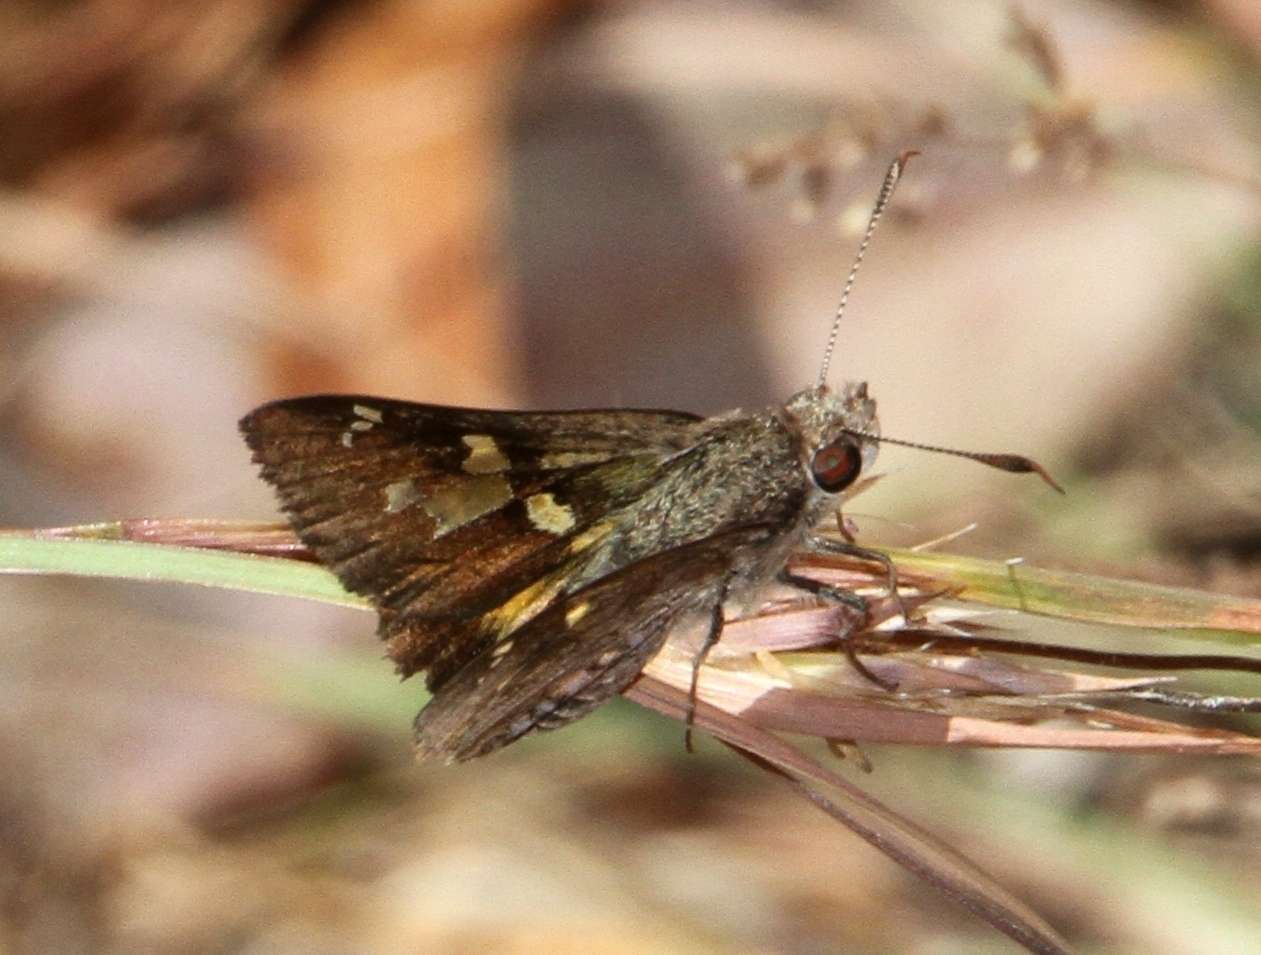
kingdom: Animalia
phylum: Arthropoda
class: Insecta
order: Lepidoptera
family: Hesperiidae
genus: Trapezites
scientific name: Trapezites phigalioides
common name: Montane ochre
